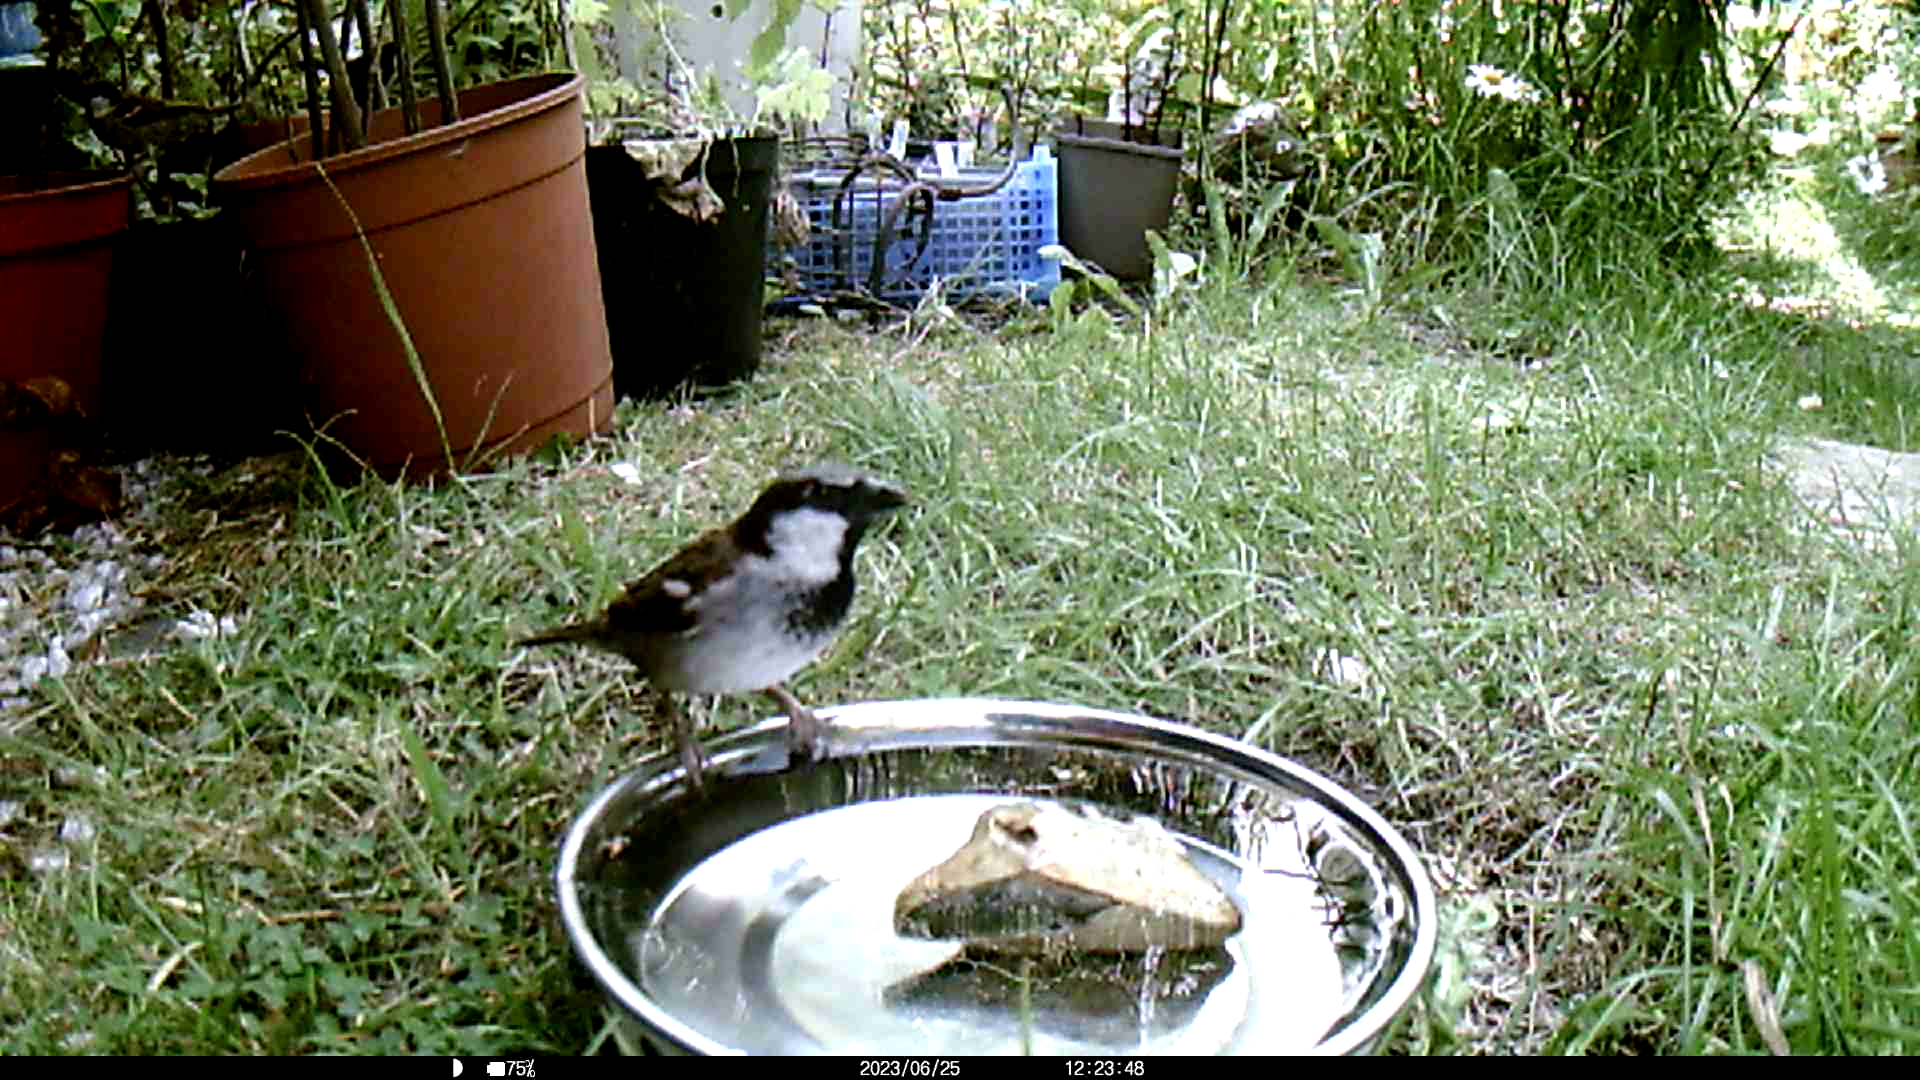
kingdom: Animalia
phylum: Chordata
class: Aves
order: Passeriformes
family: Passeridae
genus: Passer
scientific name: Passer domesticus
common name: House sparrow
